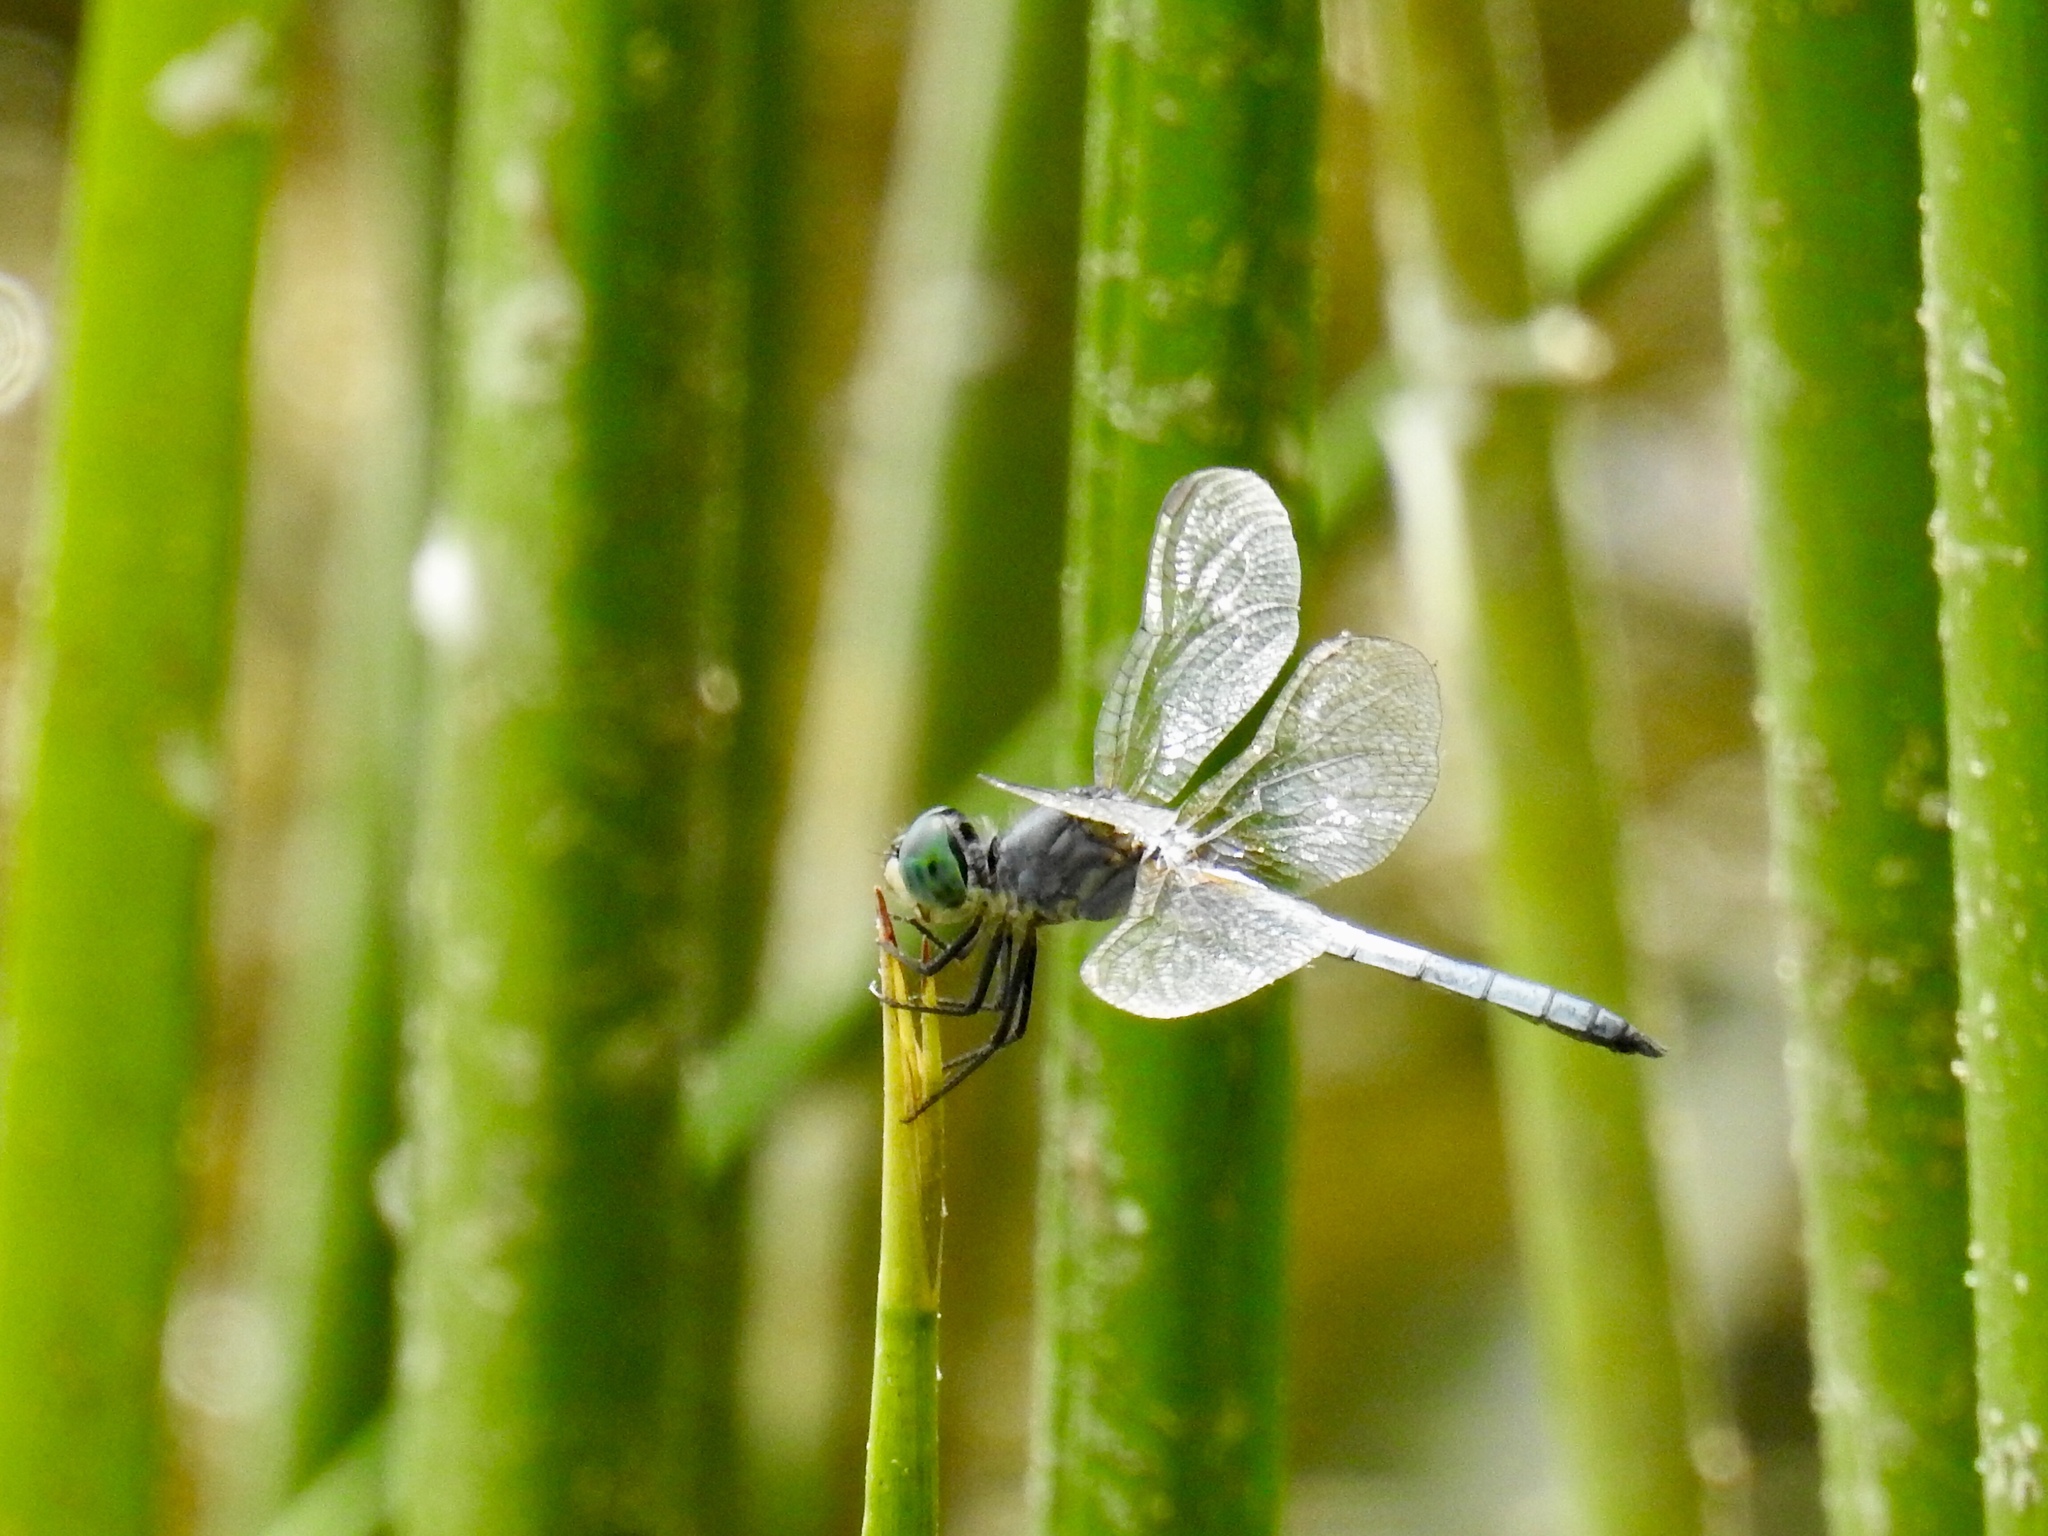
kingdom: Animalia
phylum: Arthropoda
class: Insecta
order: Odonata
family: Libellulidae
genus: Pachydiplax
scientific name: Pachydiplax longipennis
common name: Blue dasher
